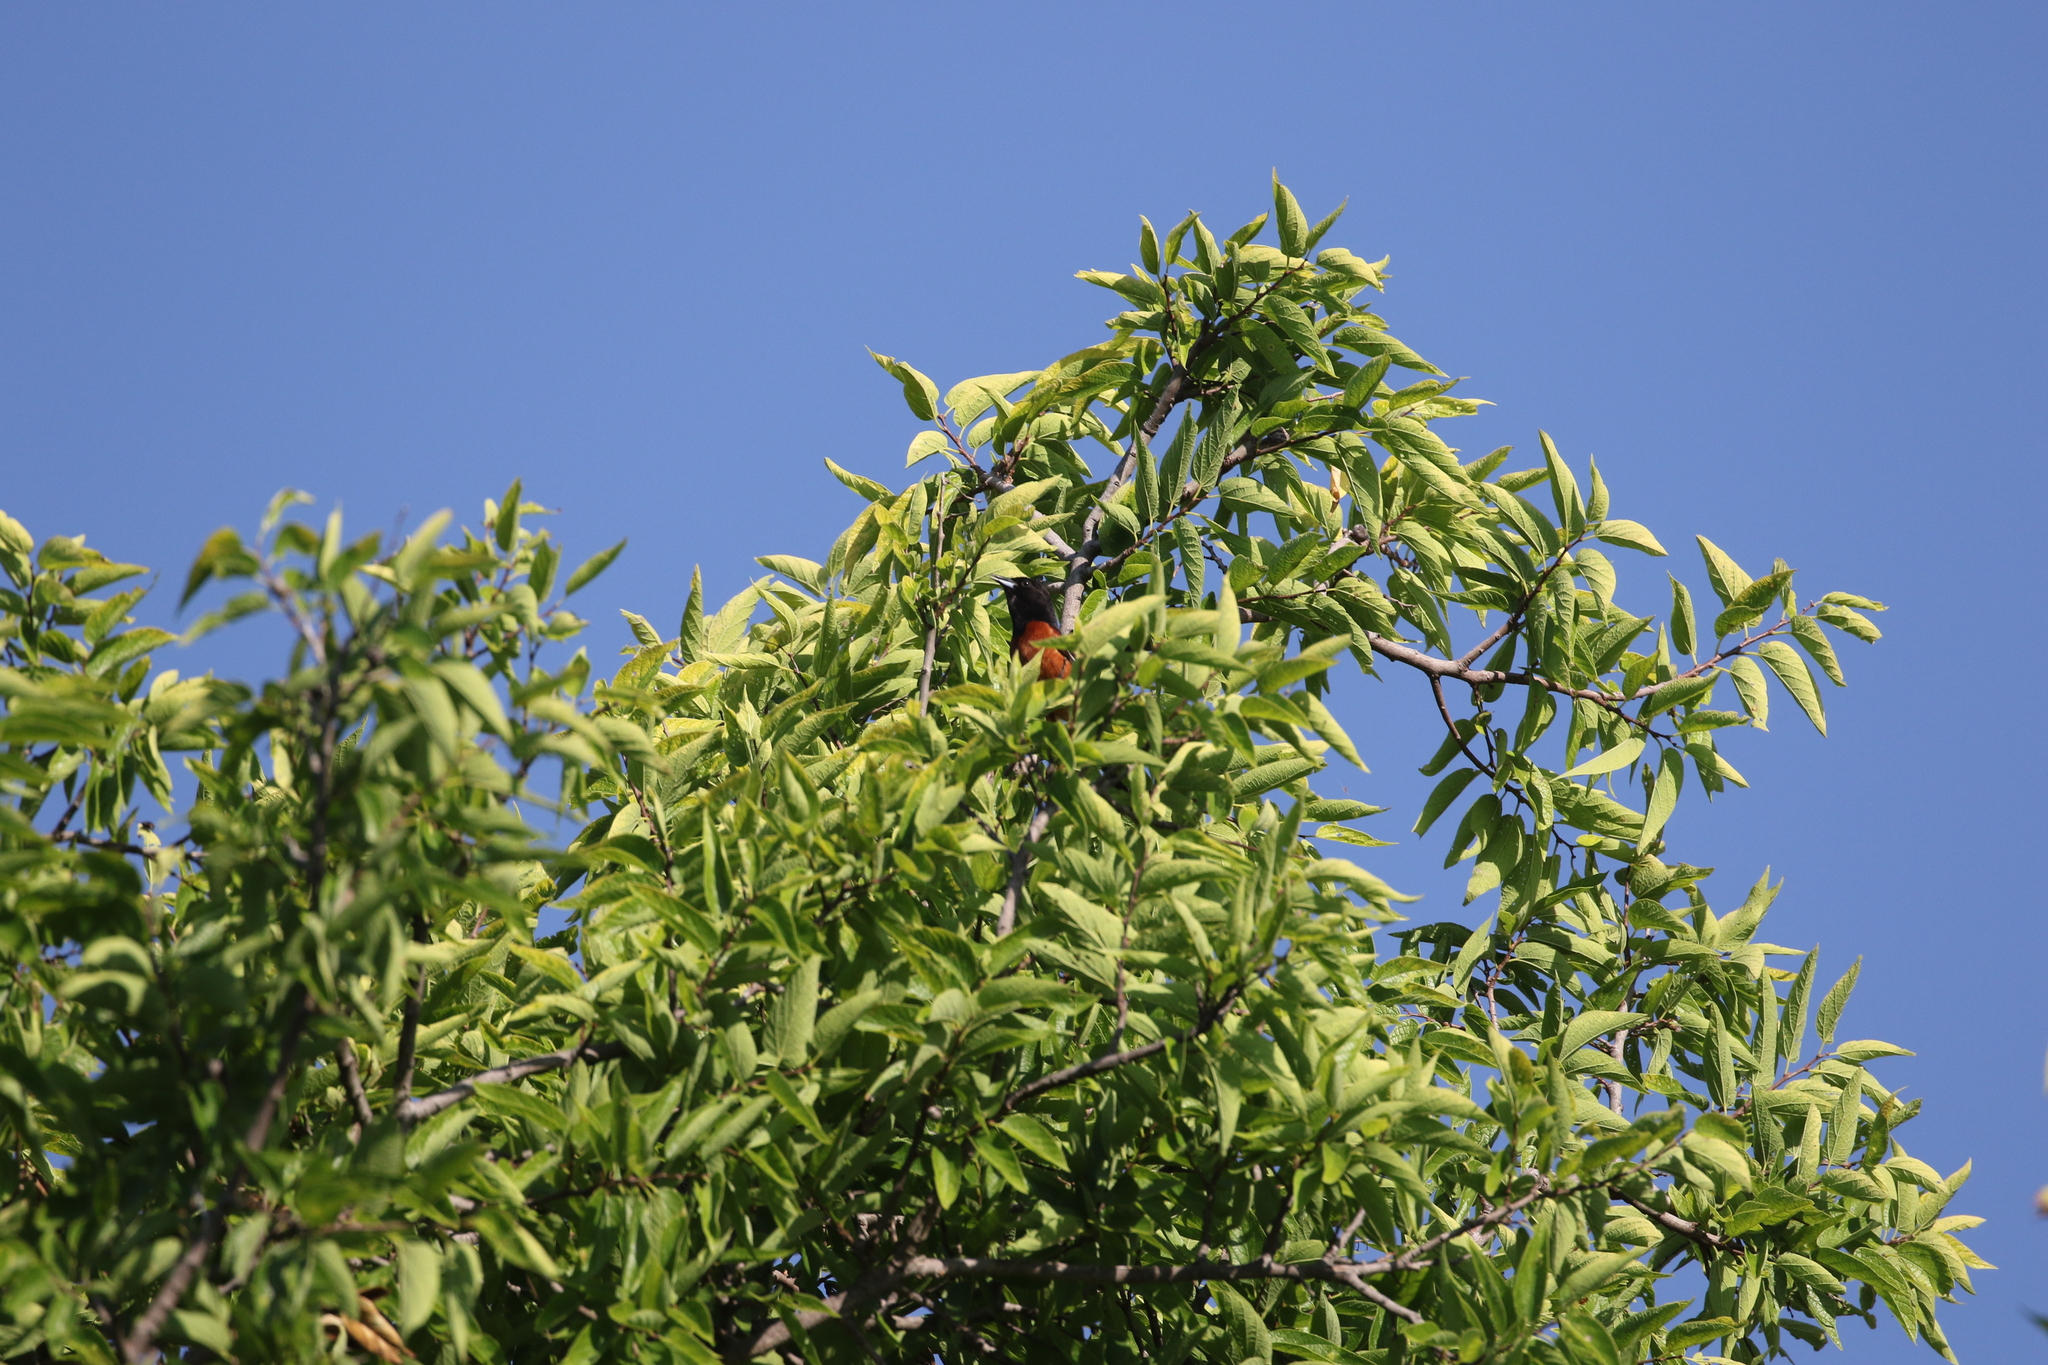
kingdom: Animalia
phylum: Chordata
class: Aves
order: Passeriformes
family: Icteridae
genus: Icterus
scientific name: Icterus spurius
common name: Orchard oriole
